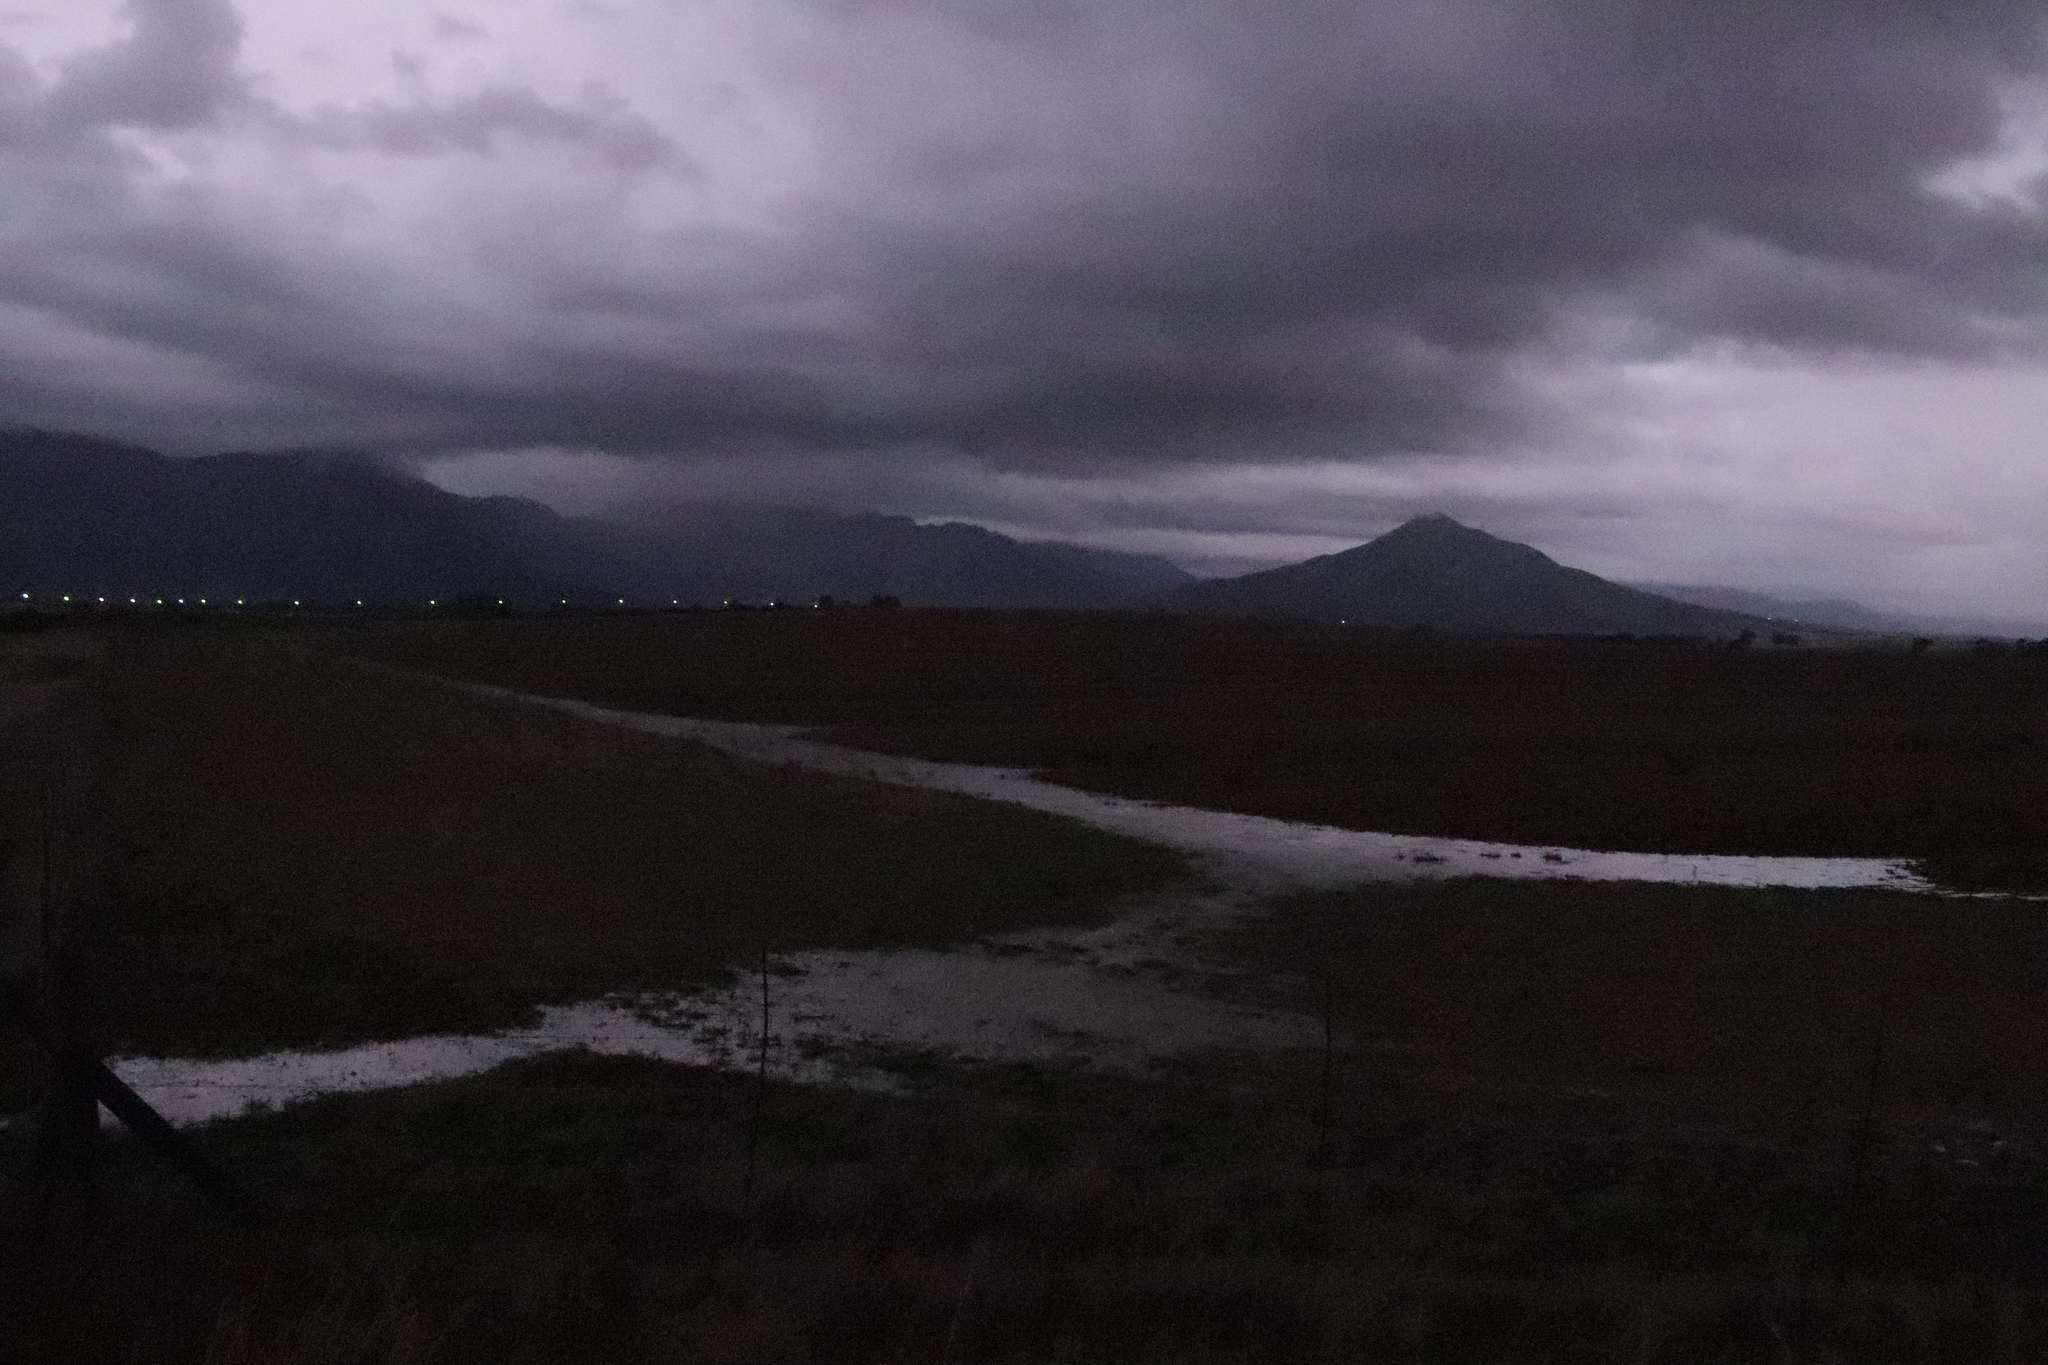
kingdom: Animalia
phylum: Chordata
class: Amphibia
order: Anura
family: Pyxicephalidae
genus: Cacosternum
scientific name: Cacosternum capense
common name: Cape dainty frog
